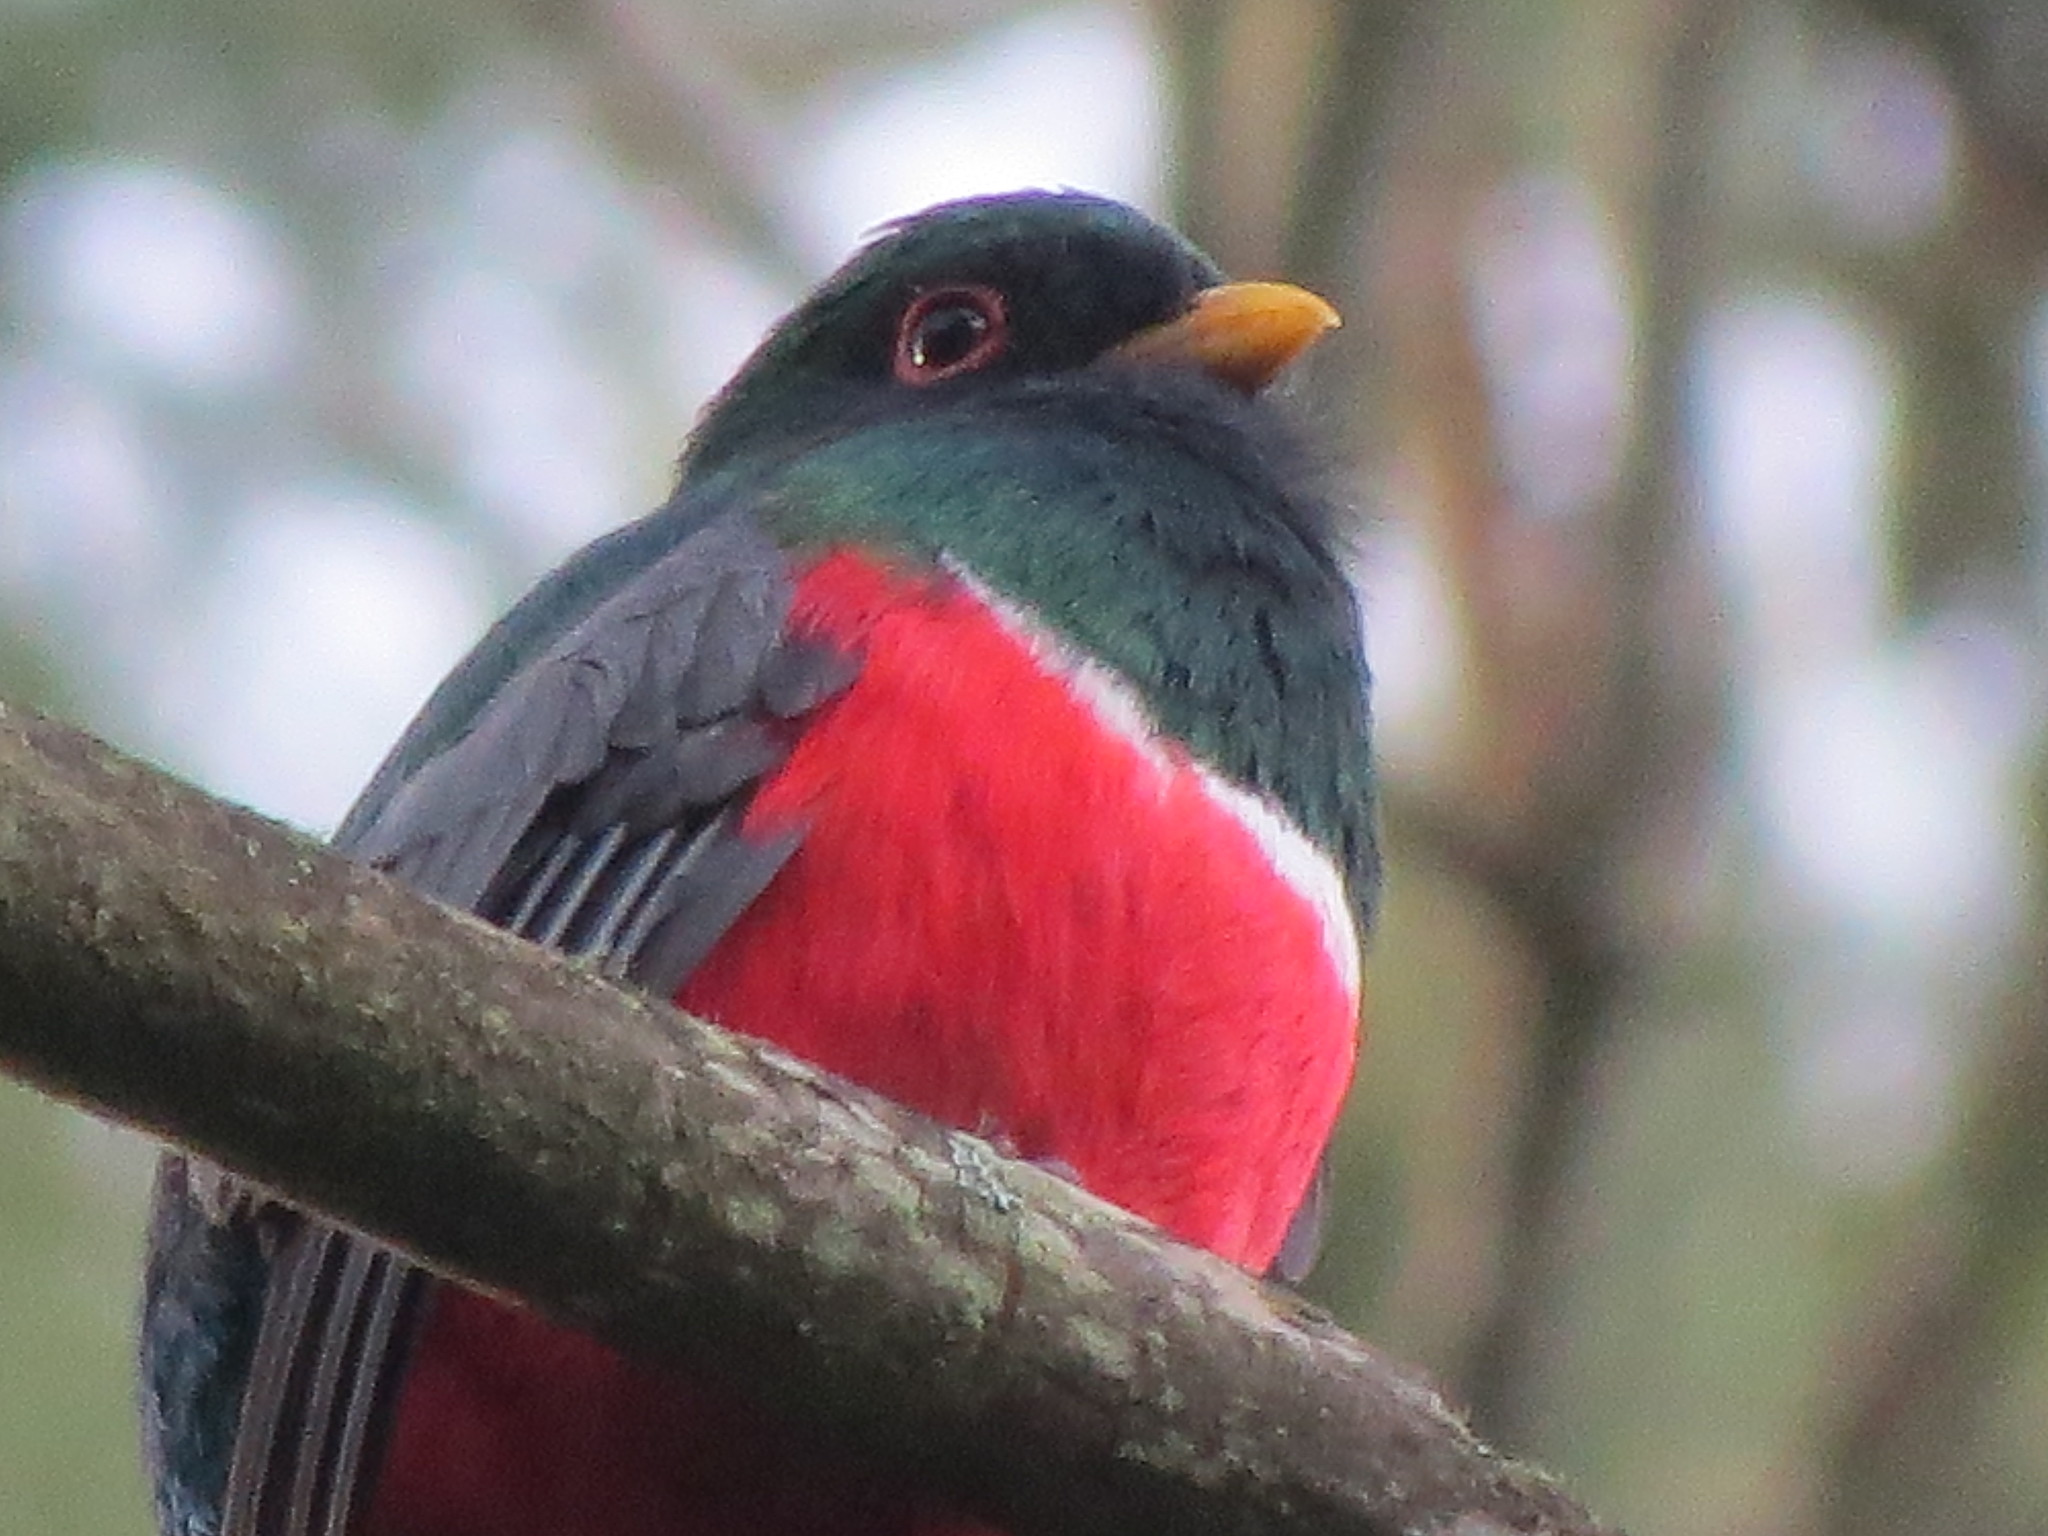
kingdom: Animalia
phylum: Chordata
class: Aves
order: Trogoniformes
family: Trogonidae
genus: Trogon
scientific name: Trogon mexicanus
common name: Mountain trogon
